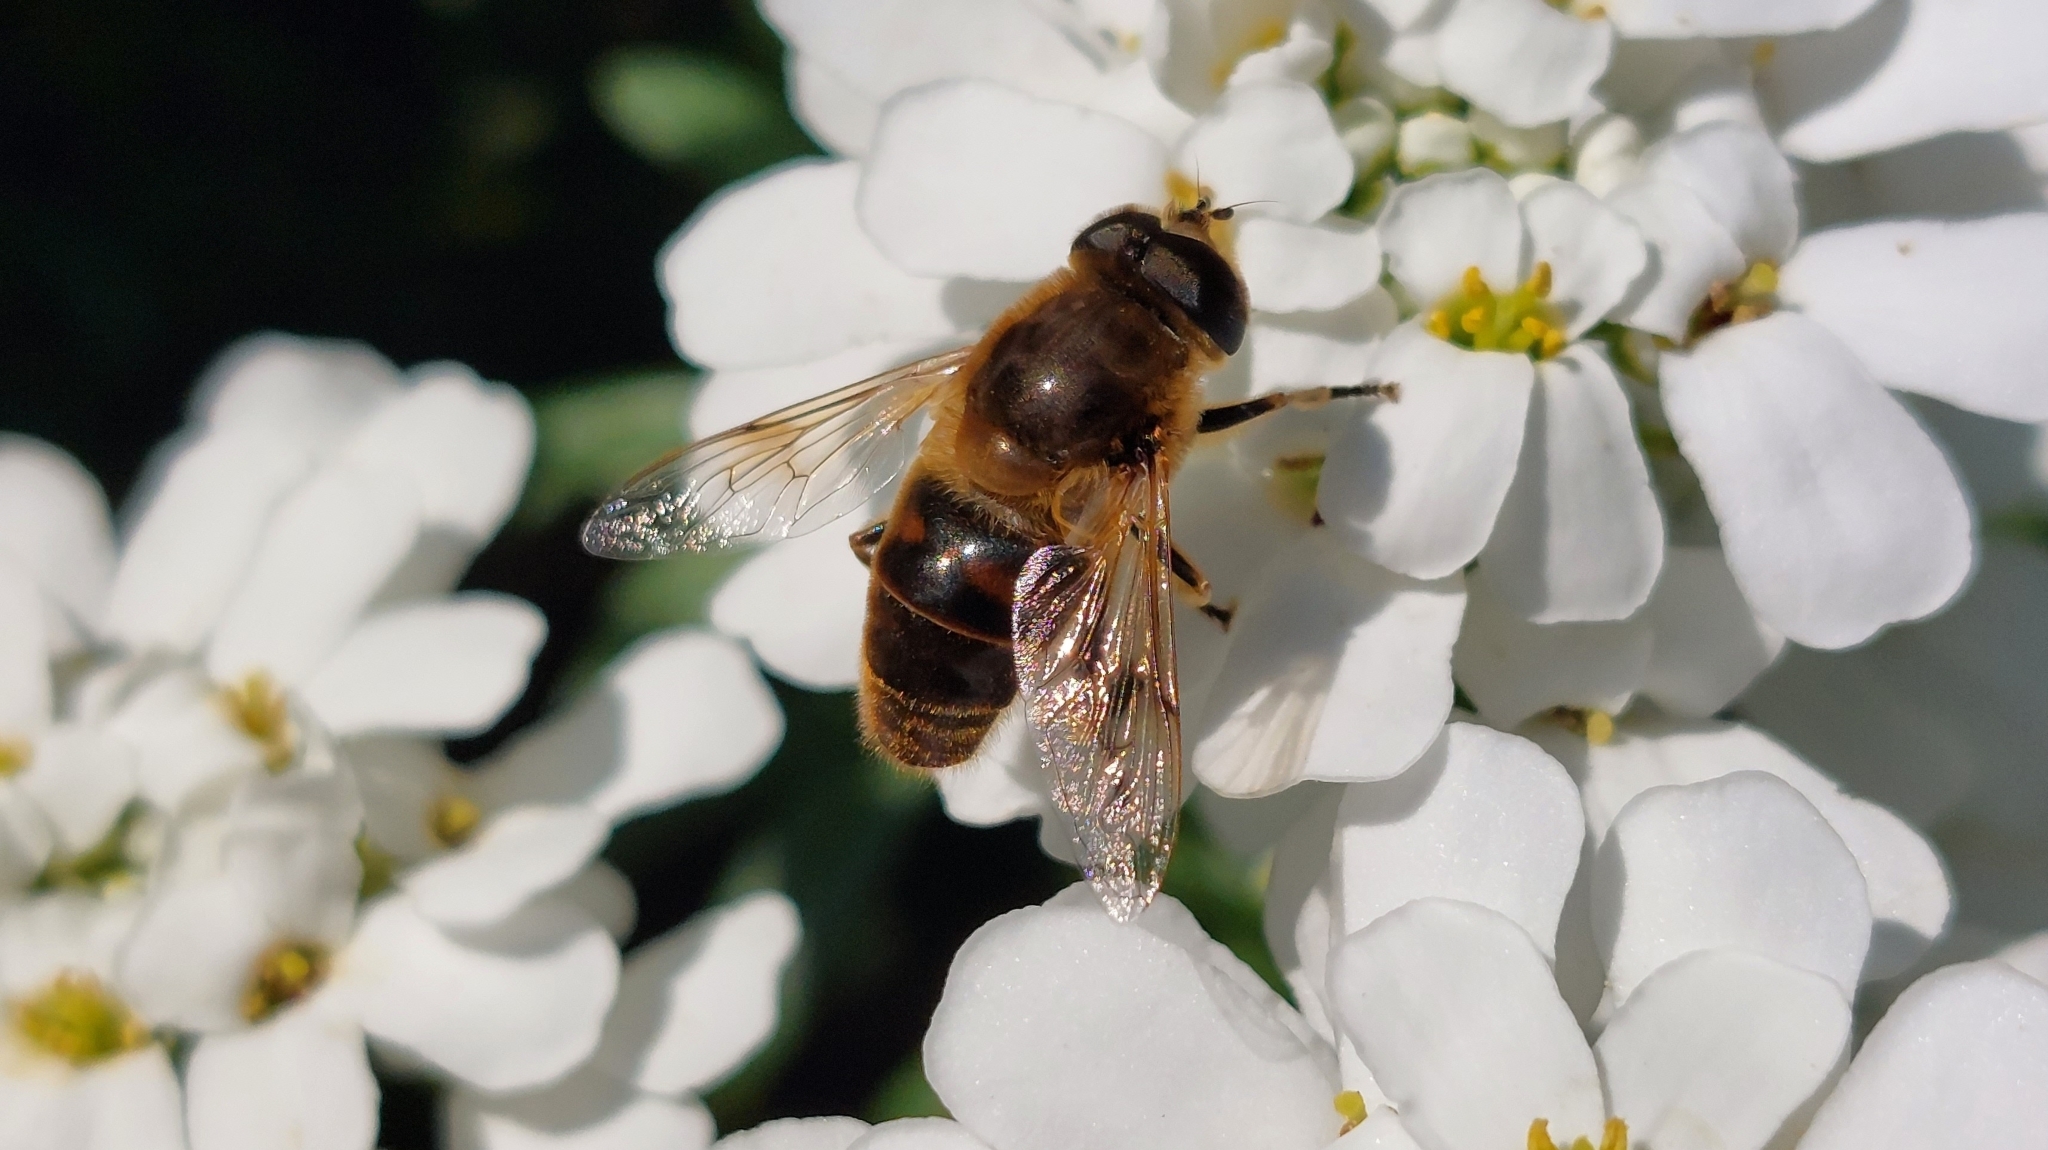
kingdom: Animalia
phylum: Arthropoda
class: Insecta
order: Diptera
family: Syrphidae
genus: Eristalis
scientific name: Eristalis tenax
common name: Drone fly
